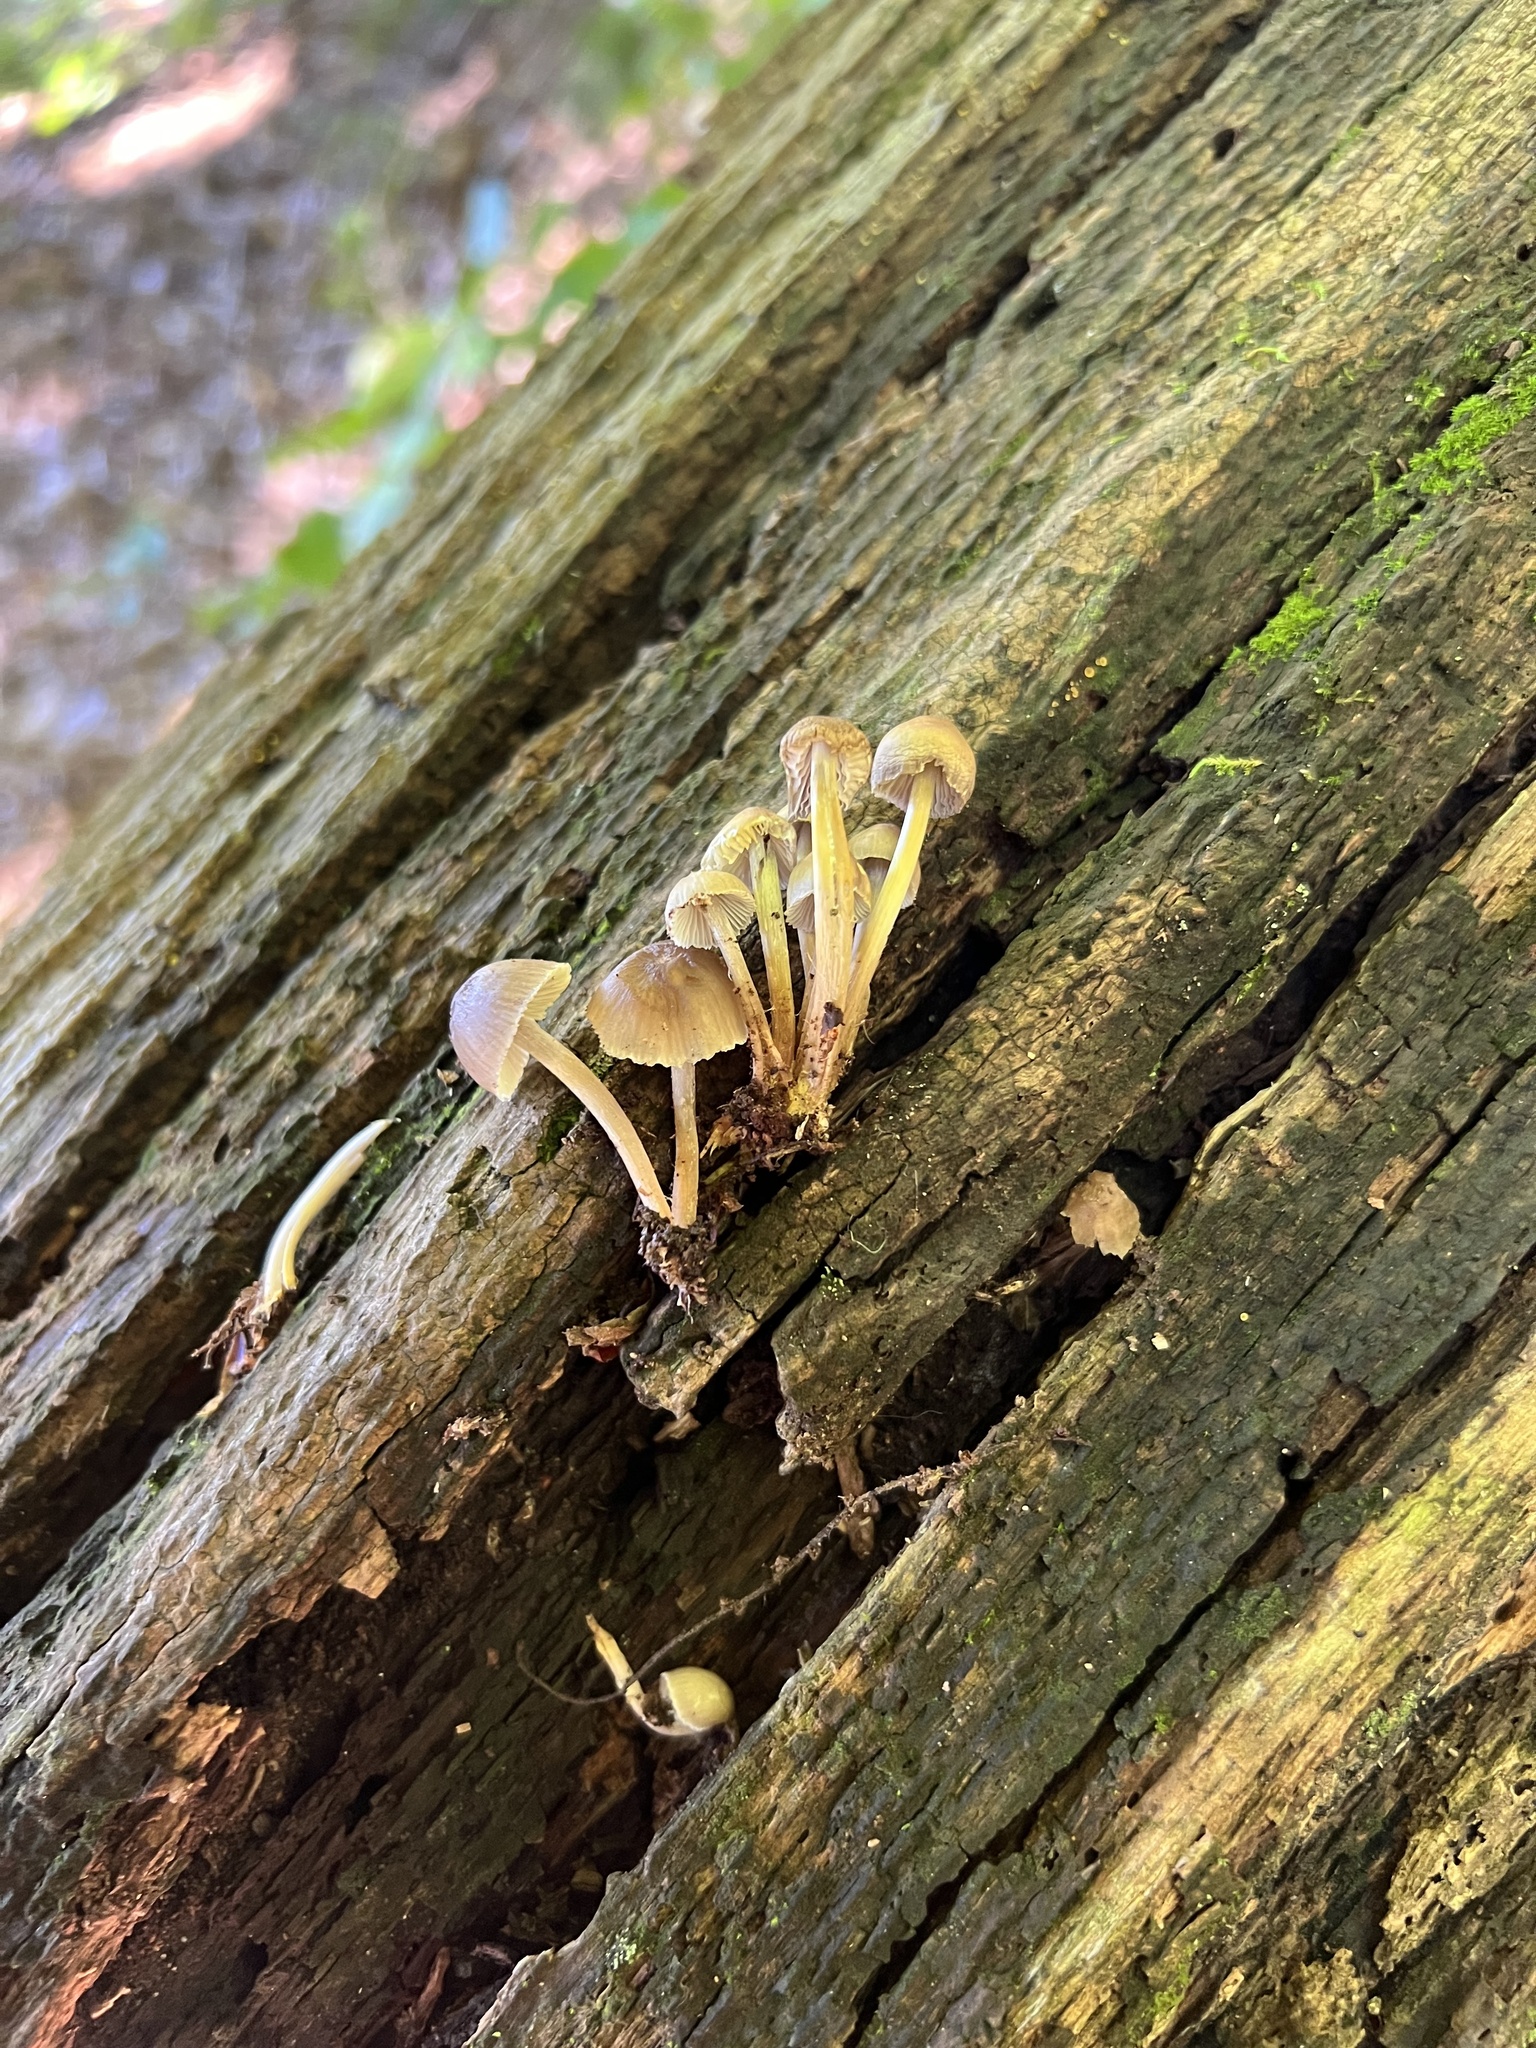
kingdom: Fungi
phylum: Basidiomycota
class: Agaricomycetes
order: Agaricales
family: Mycenaceae
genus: Mycena
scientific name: Mycena inclinata
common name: Clustered bonnet
